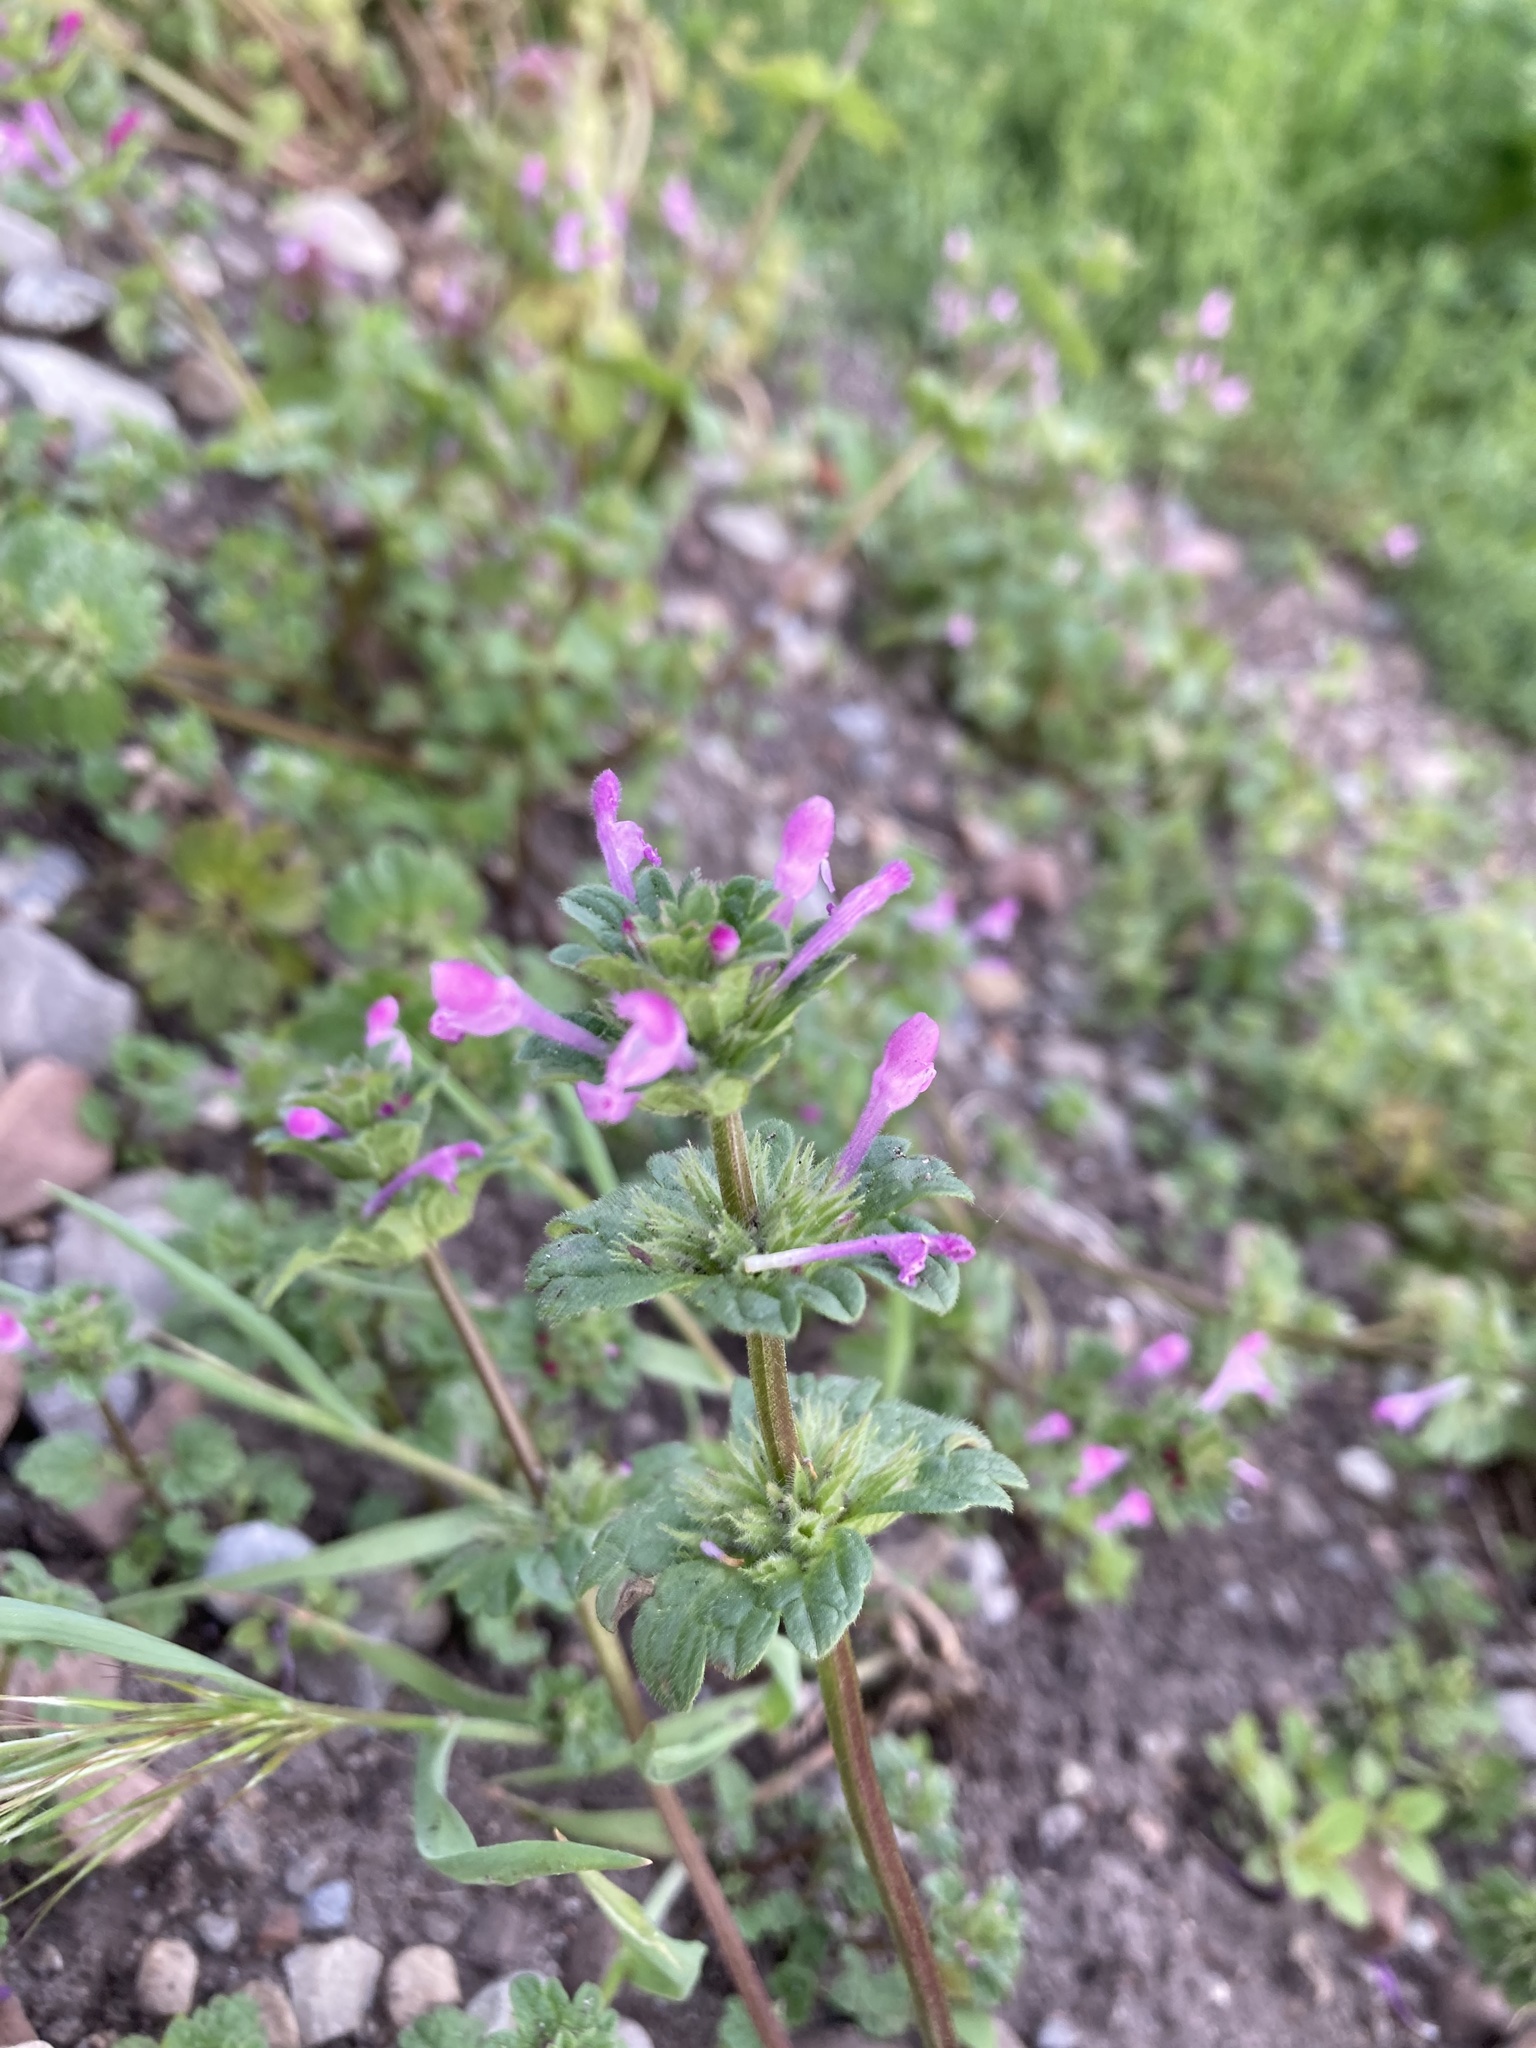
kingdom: Plantae
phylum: Tracheophyta
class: Magnoliopsida
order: Lamiales
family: Lamiaceae
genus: Lamium
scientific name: Lamium amplexicaule
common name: Henbit dead-nettle
